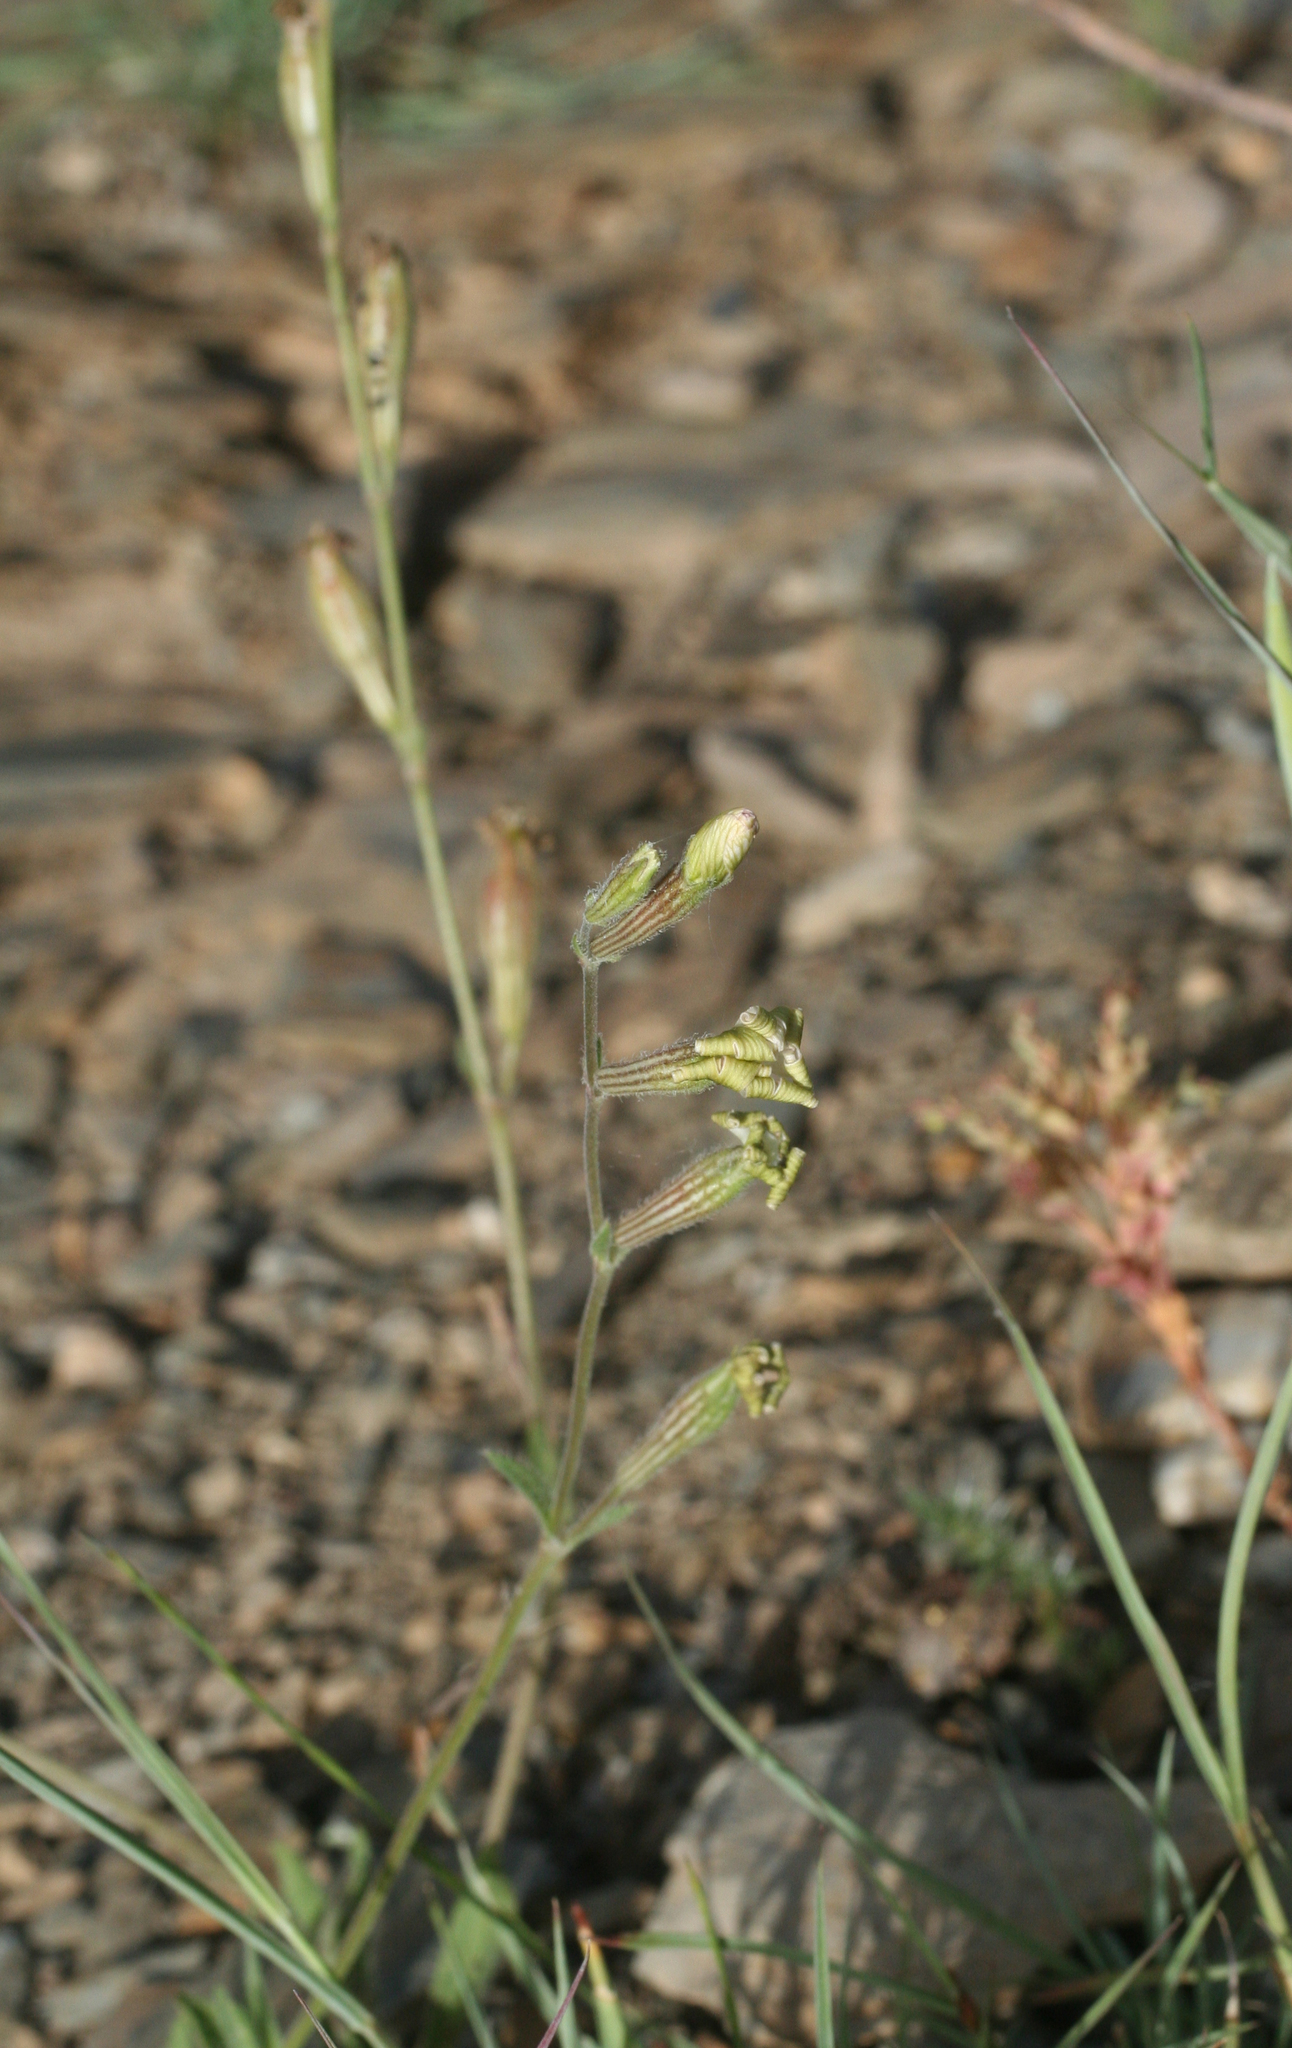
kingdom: Plantae
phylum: Tracheophyta
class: Magnoliopsida
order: Caryophyllales
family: Caryophyllaceae
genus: Silene
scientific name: Silene pomelii
